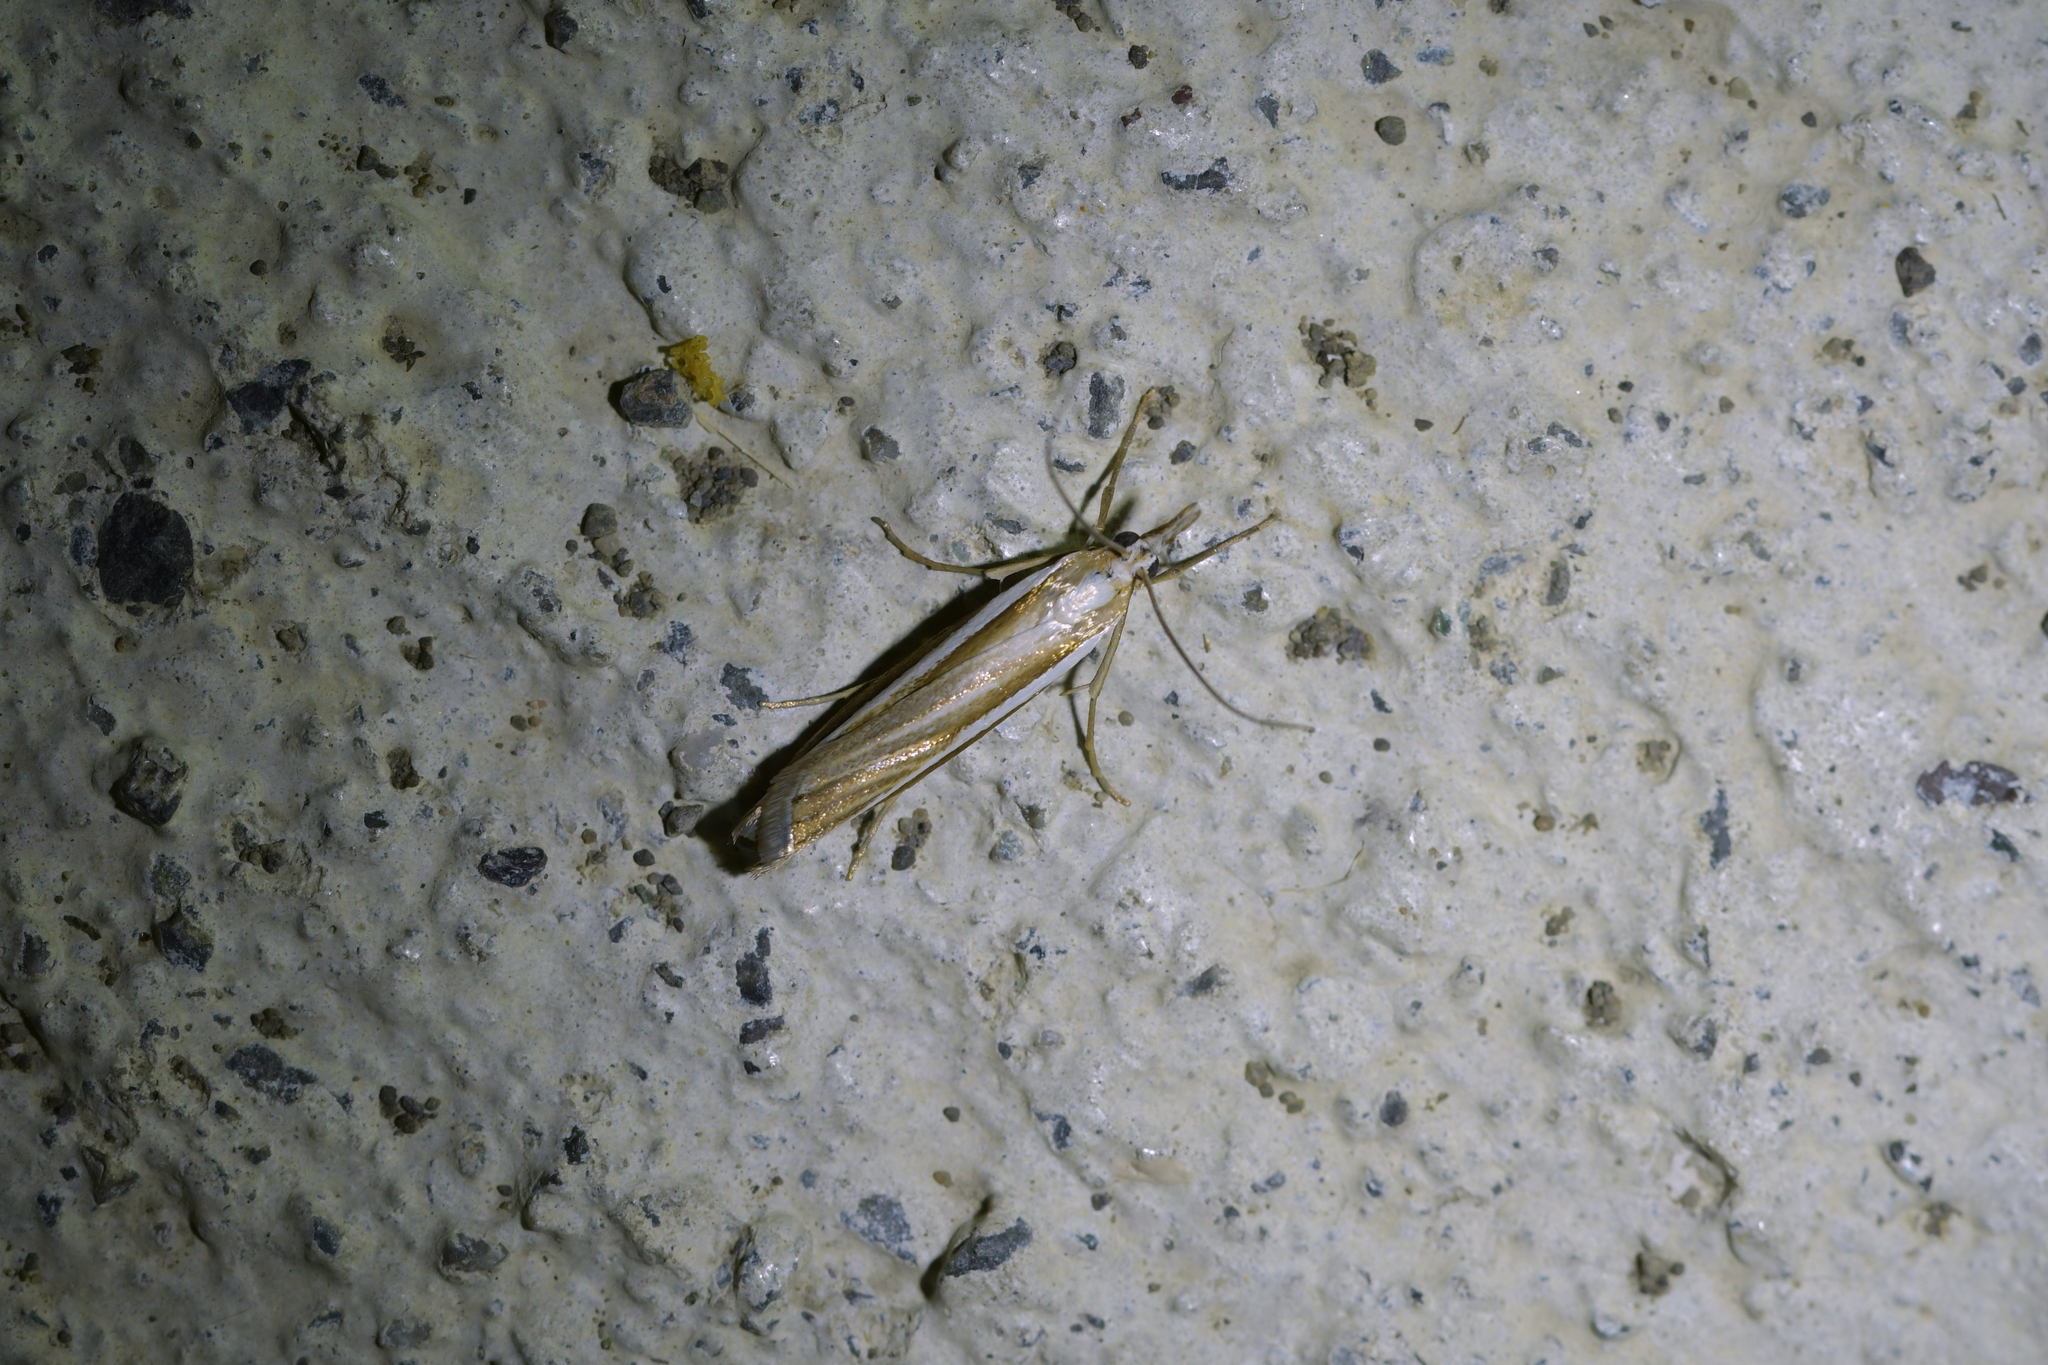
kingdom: Animalia
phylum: Arthropoda
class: Insecta
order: Lepidoptera
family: Crambidae
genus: Orocrambus
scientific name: Orocrambus vittellus
